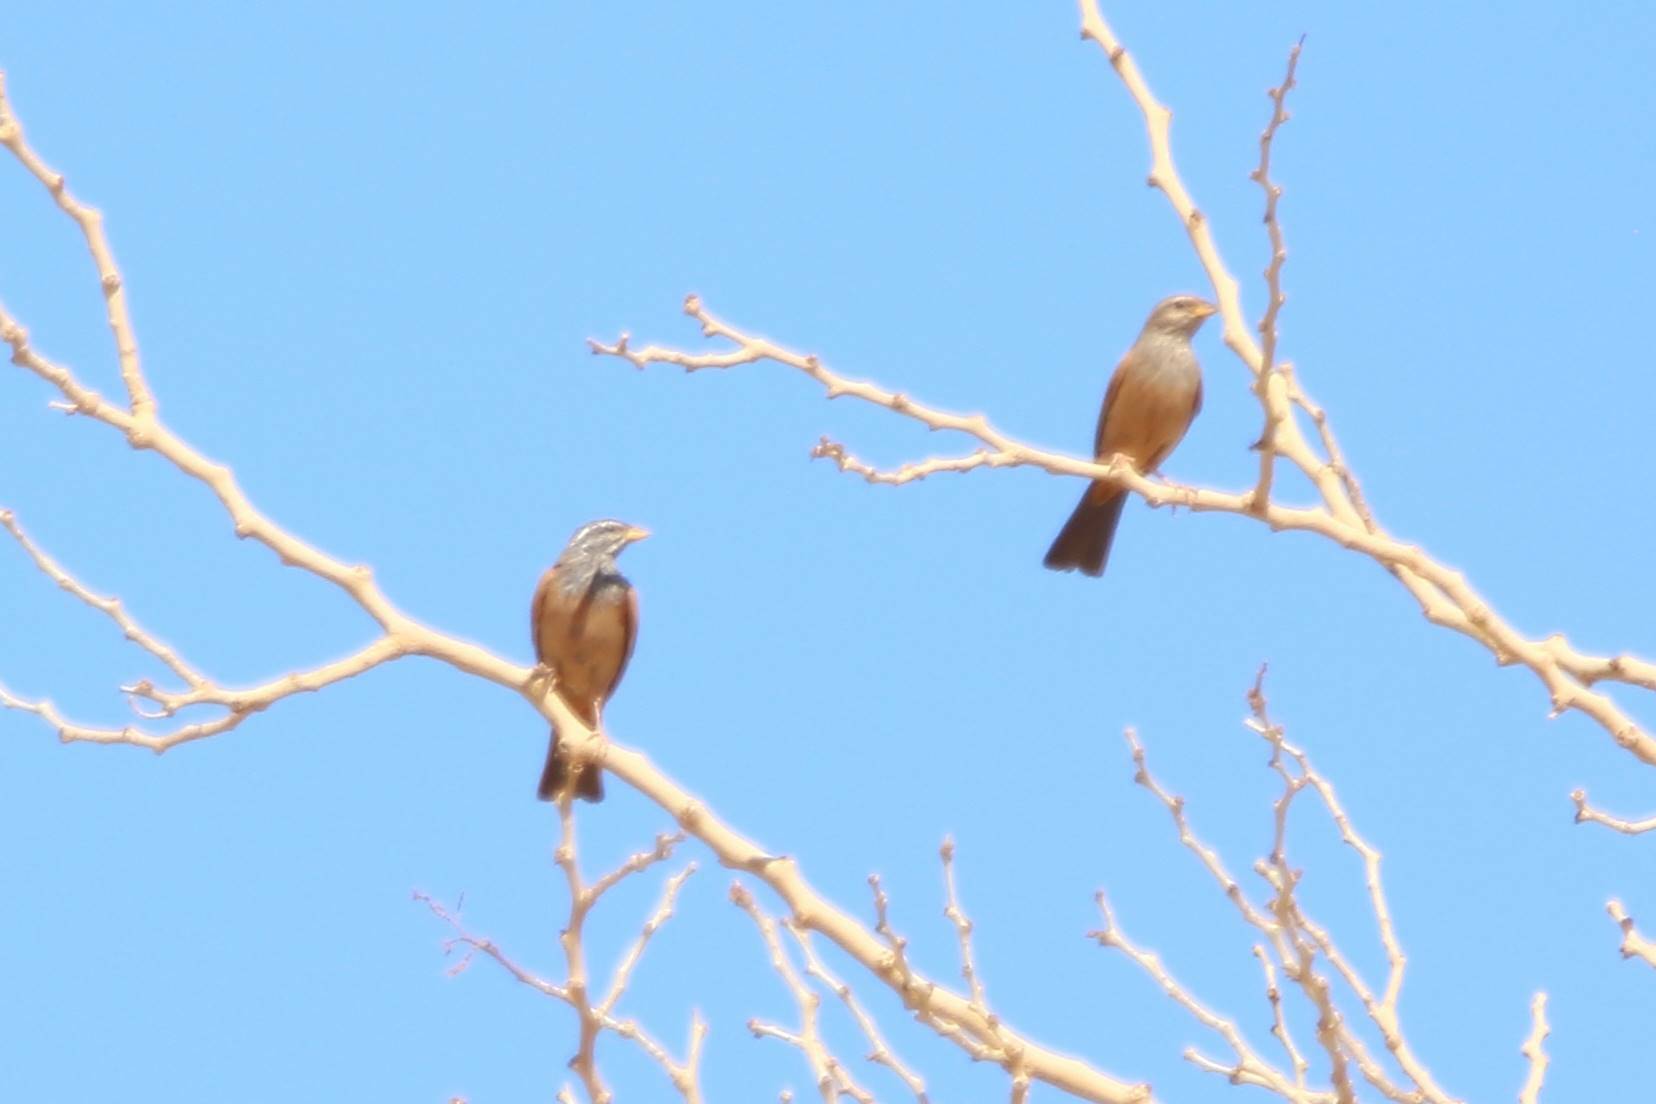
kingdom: Animalia
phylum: Chordata
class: Aves
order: Passeriformes
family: Emberizidae
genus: Emberiza
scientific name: Emberiza sahari
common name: House bunting
